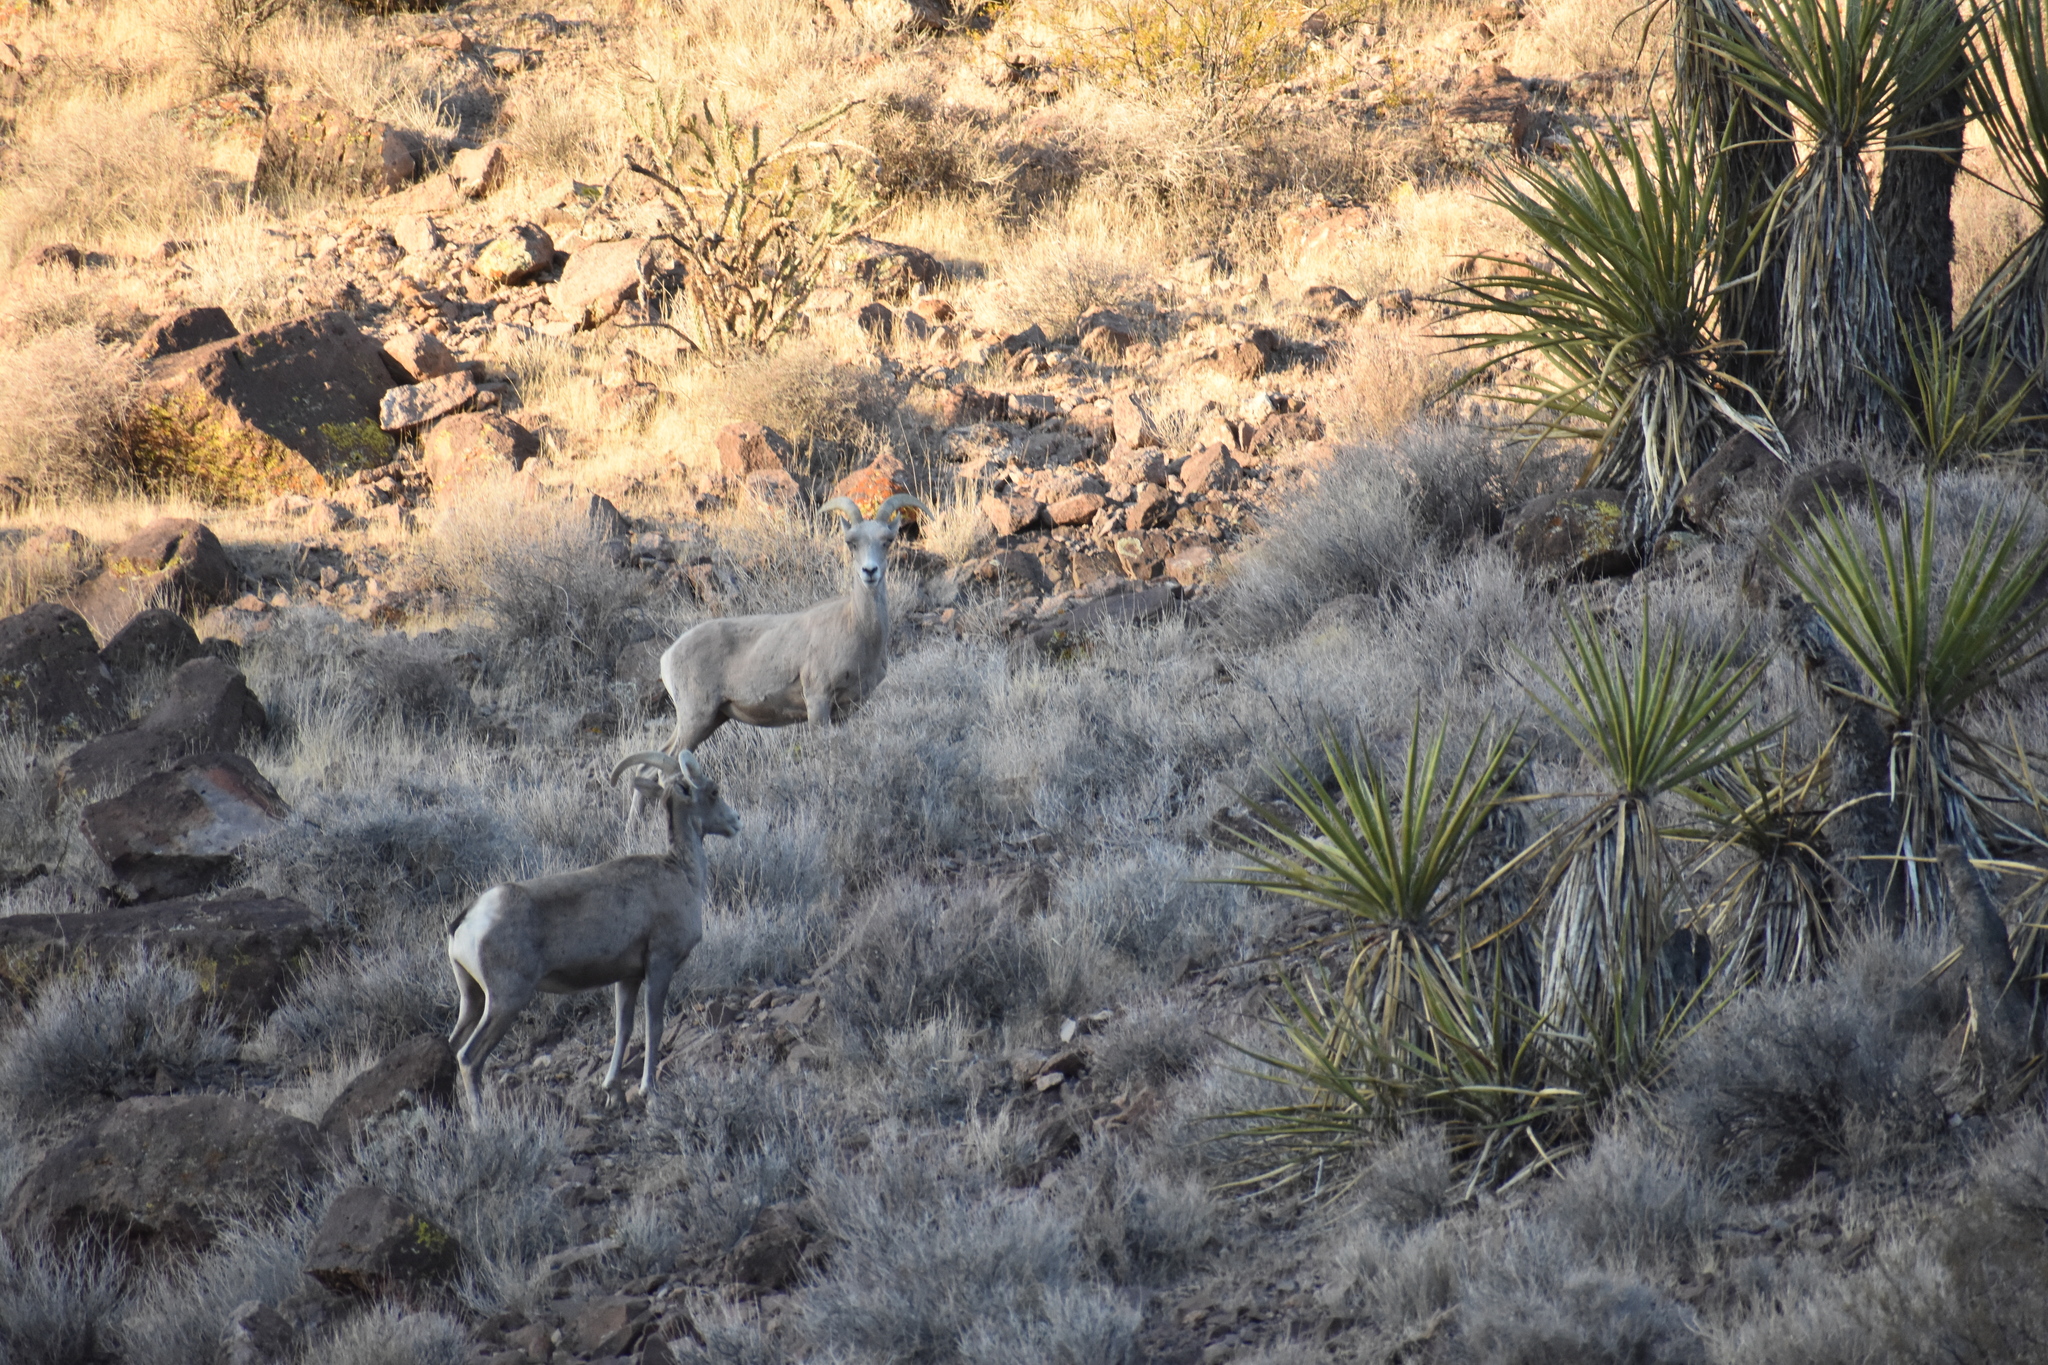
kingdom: Animalia
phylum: Chordata
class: Mammalia
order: Artiodactyla
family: Bovidae
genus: Ovis
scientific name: Ovis canadensis
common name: Bighorn sheep
